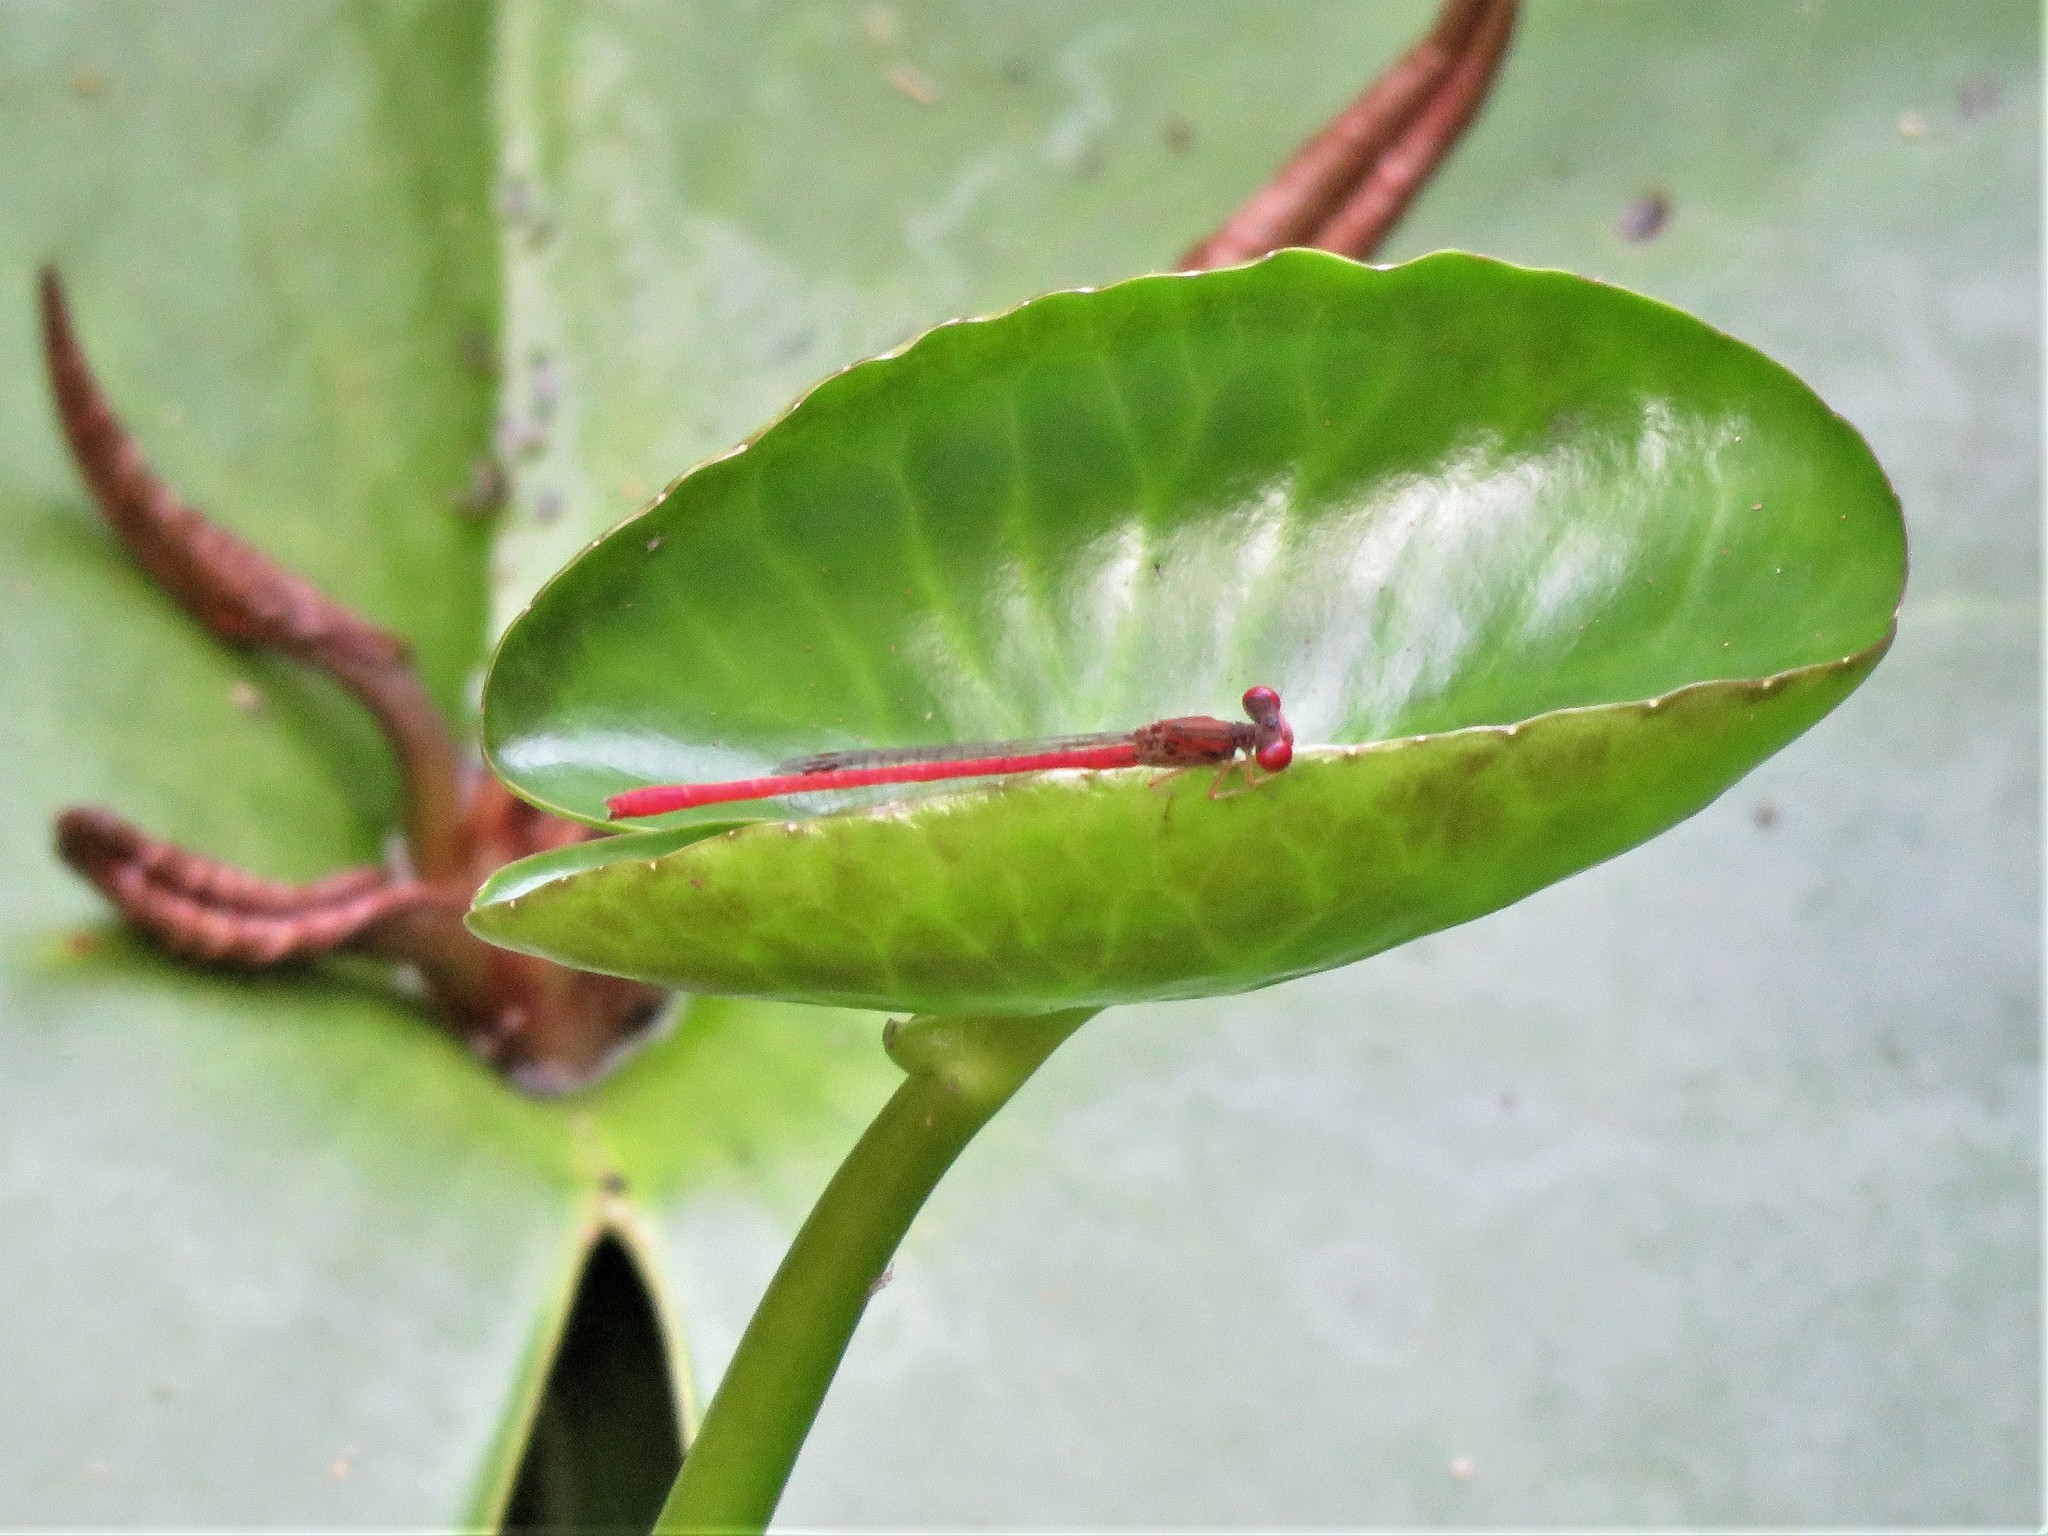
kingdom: Animalia
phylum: Arthropoda
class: Insecta
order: Odonata
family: Coenagrionidae
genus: Telebasis
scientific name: Telebasis salva
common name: Desert firetail
